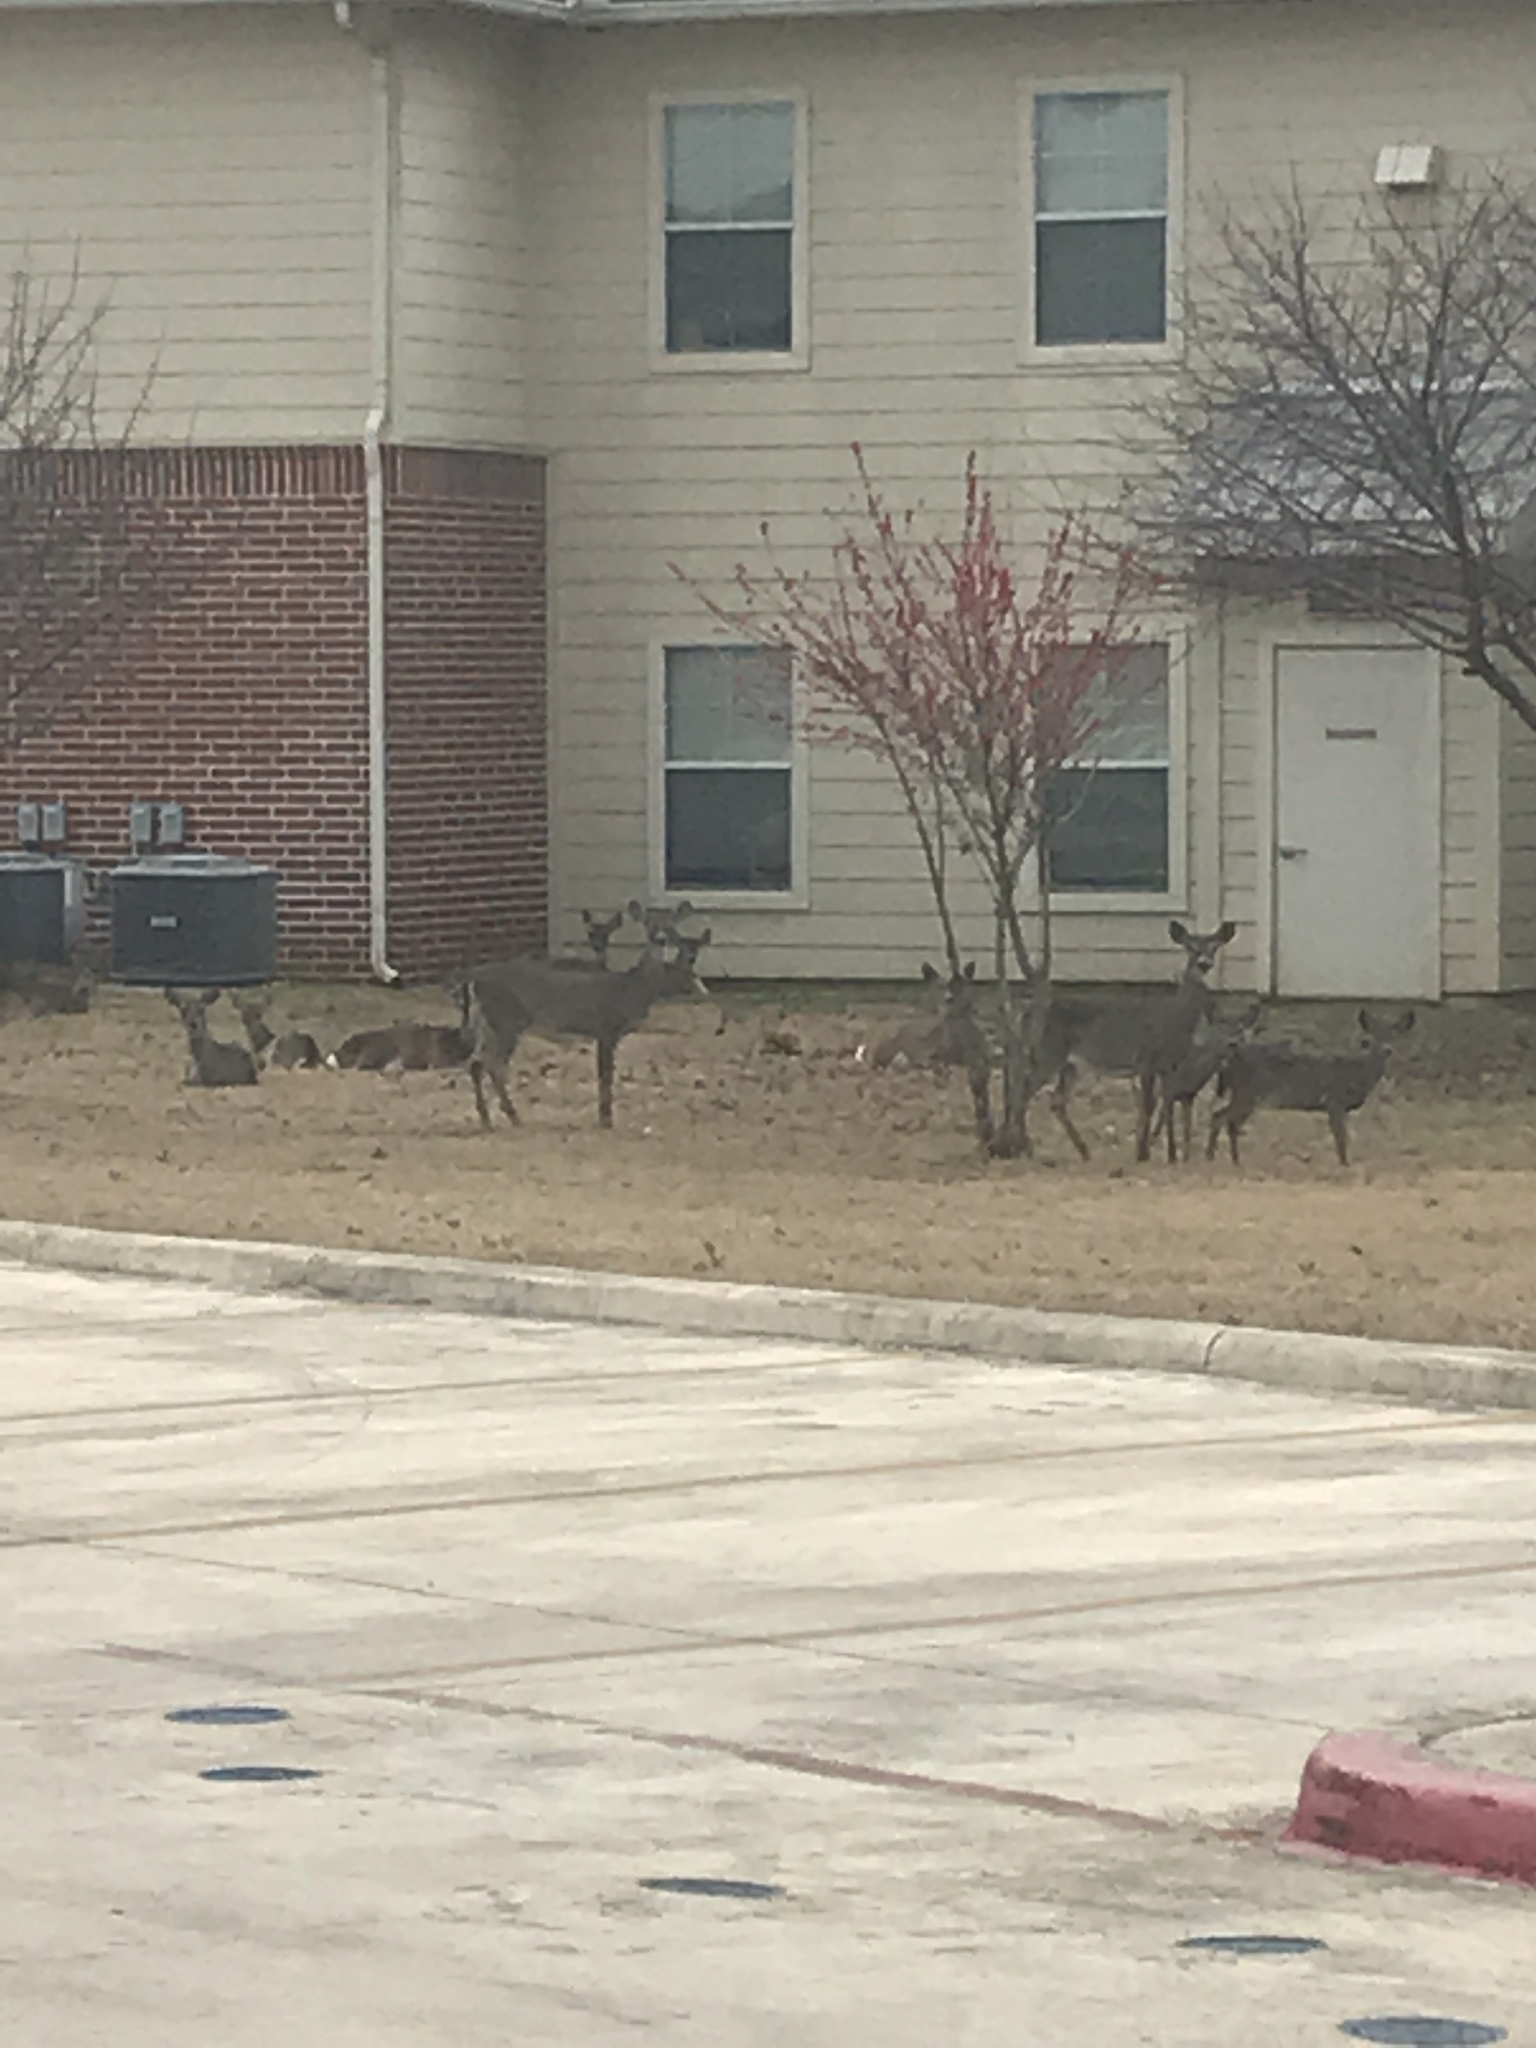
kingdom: Animalia
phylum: Chordata
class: Mammalia
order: Artiodactyla
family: Cervidae
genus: Odocoileus
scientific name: Odocoileus virginianus
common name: White-tailed deer
